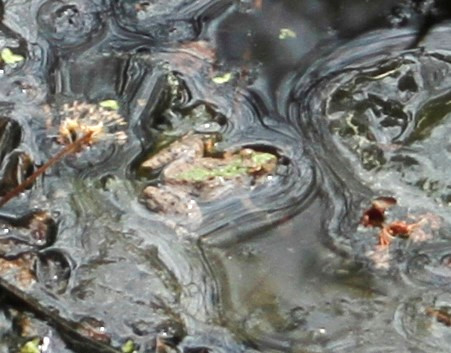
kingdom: Animalia
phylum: Chordata
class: Amphibia
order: Anura
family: Hylidae
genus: Acris
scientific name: Acris crepitans
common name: Northern cricket frog
